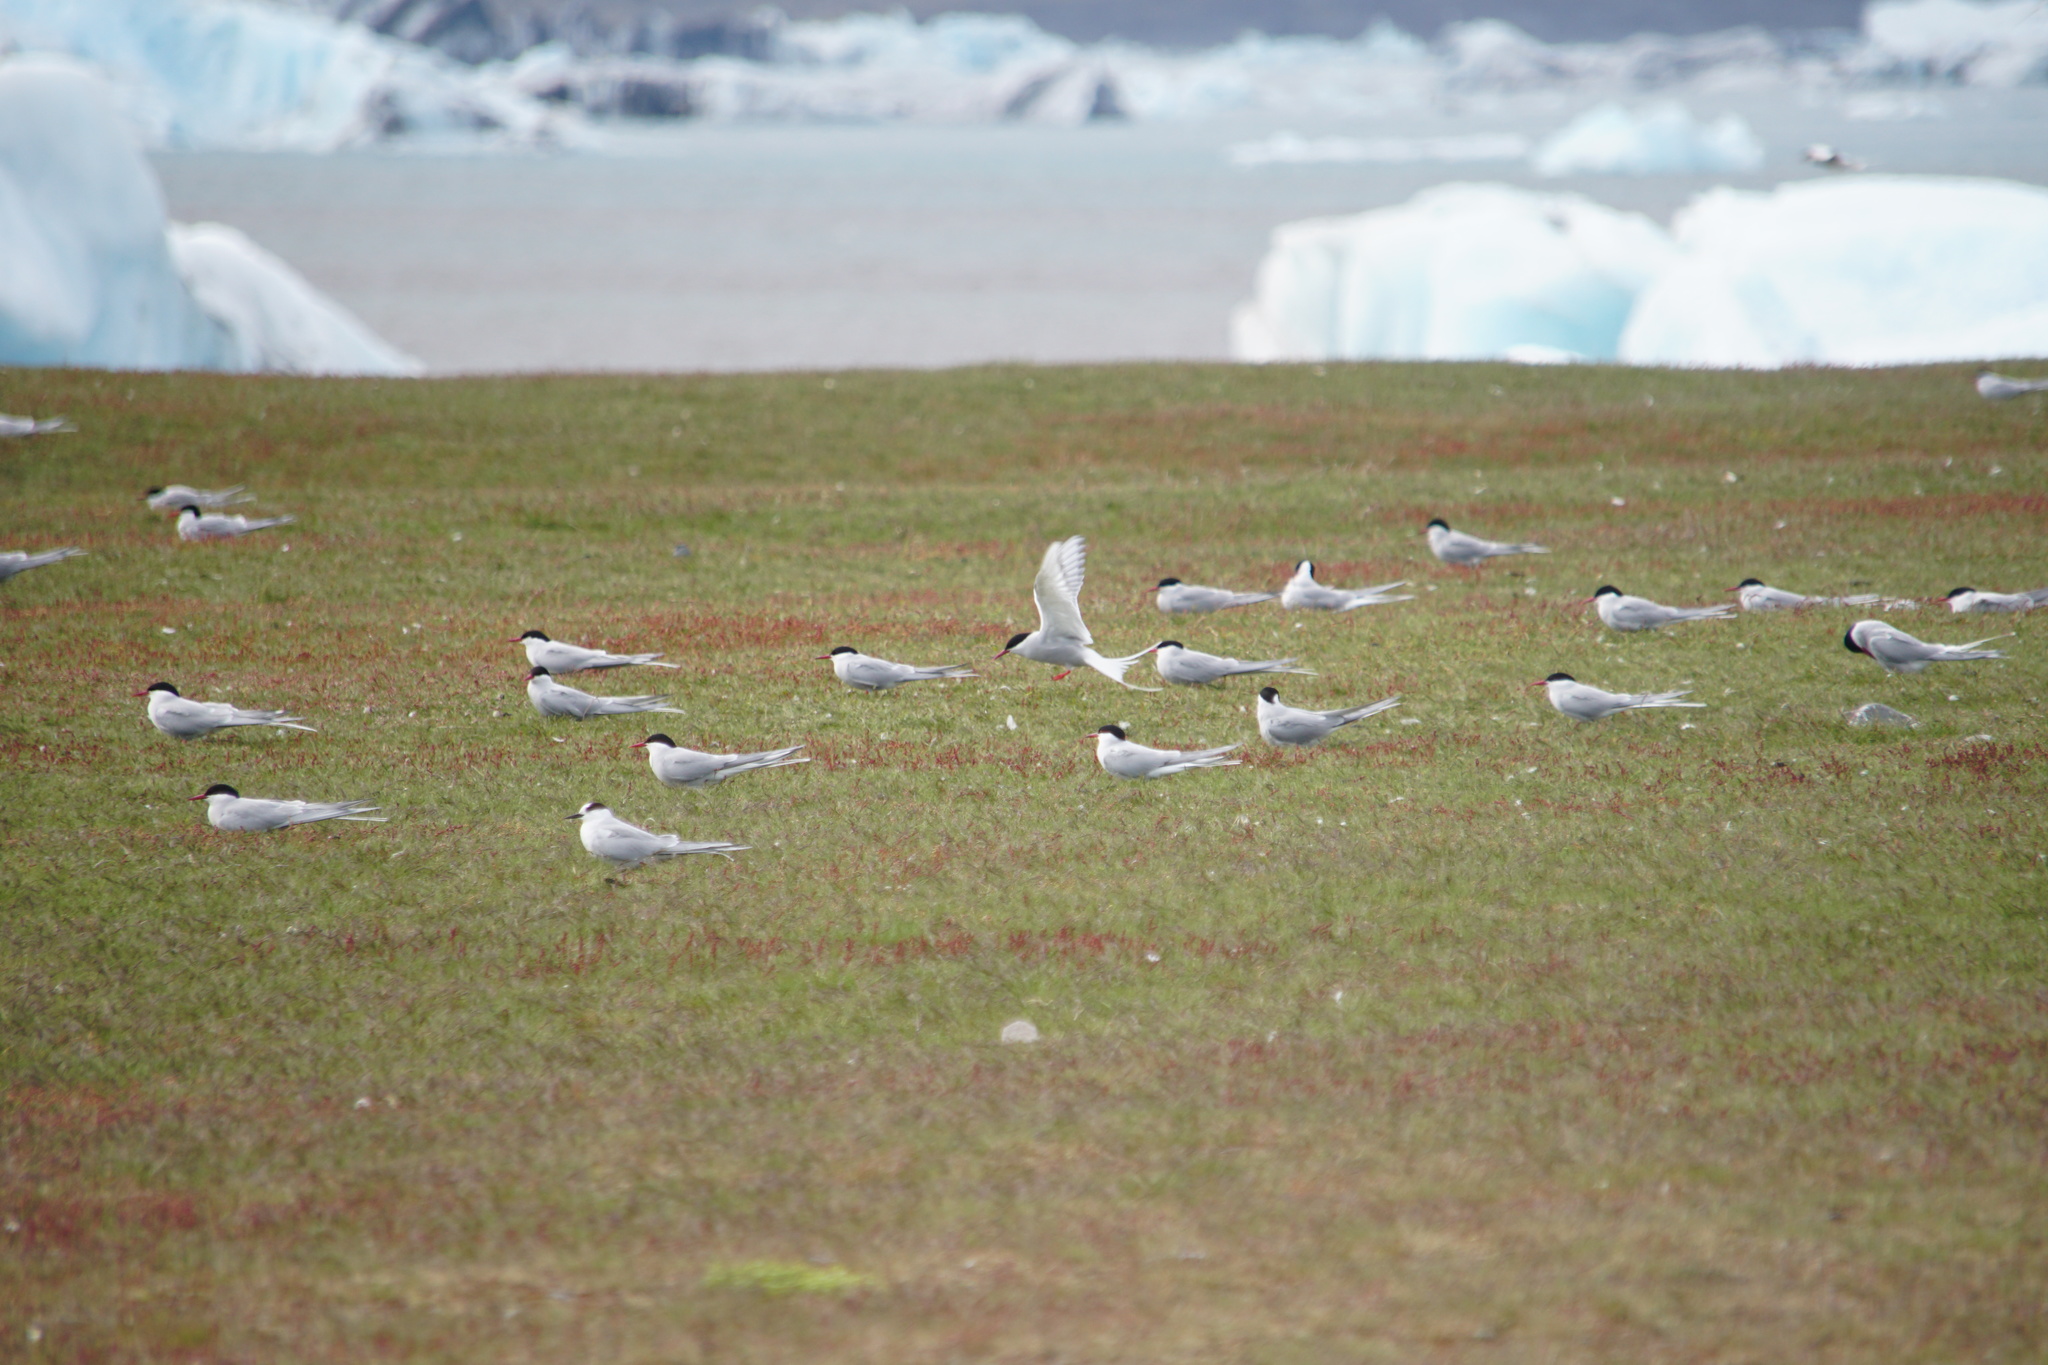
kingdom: Animalia
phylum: Chordata
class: Aves
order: Charadriiformes
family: Laridae
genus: Sterna
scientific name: Sterna paradisaea
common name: Arctic tern
